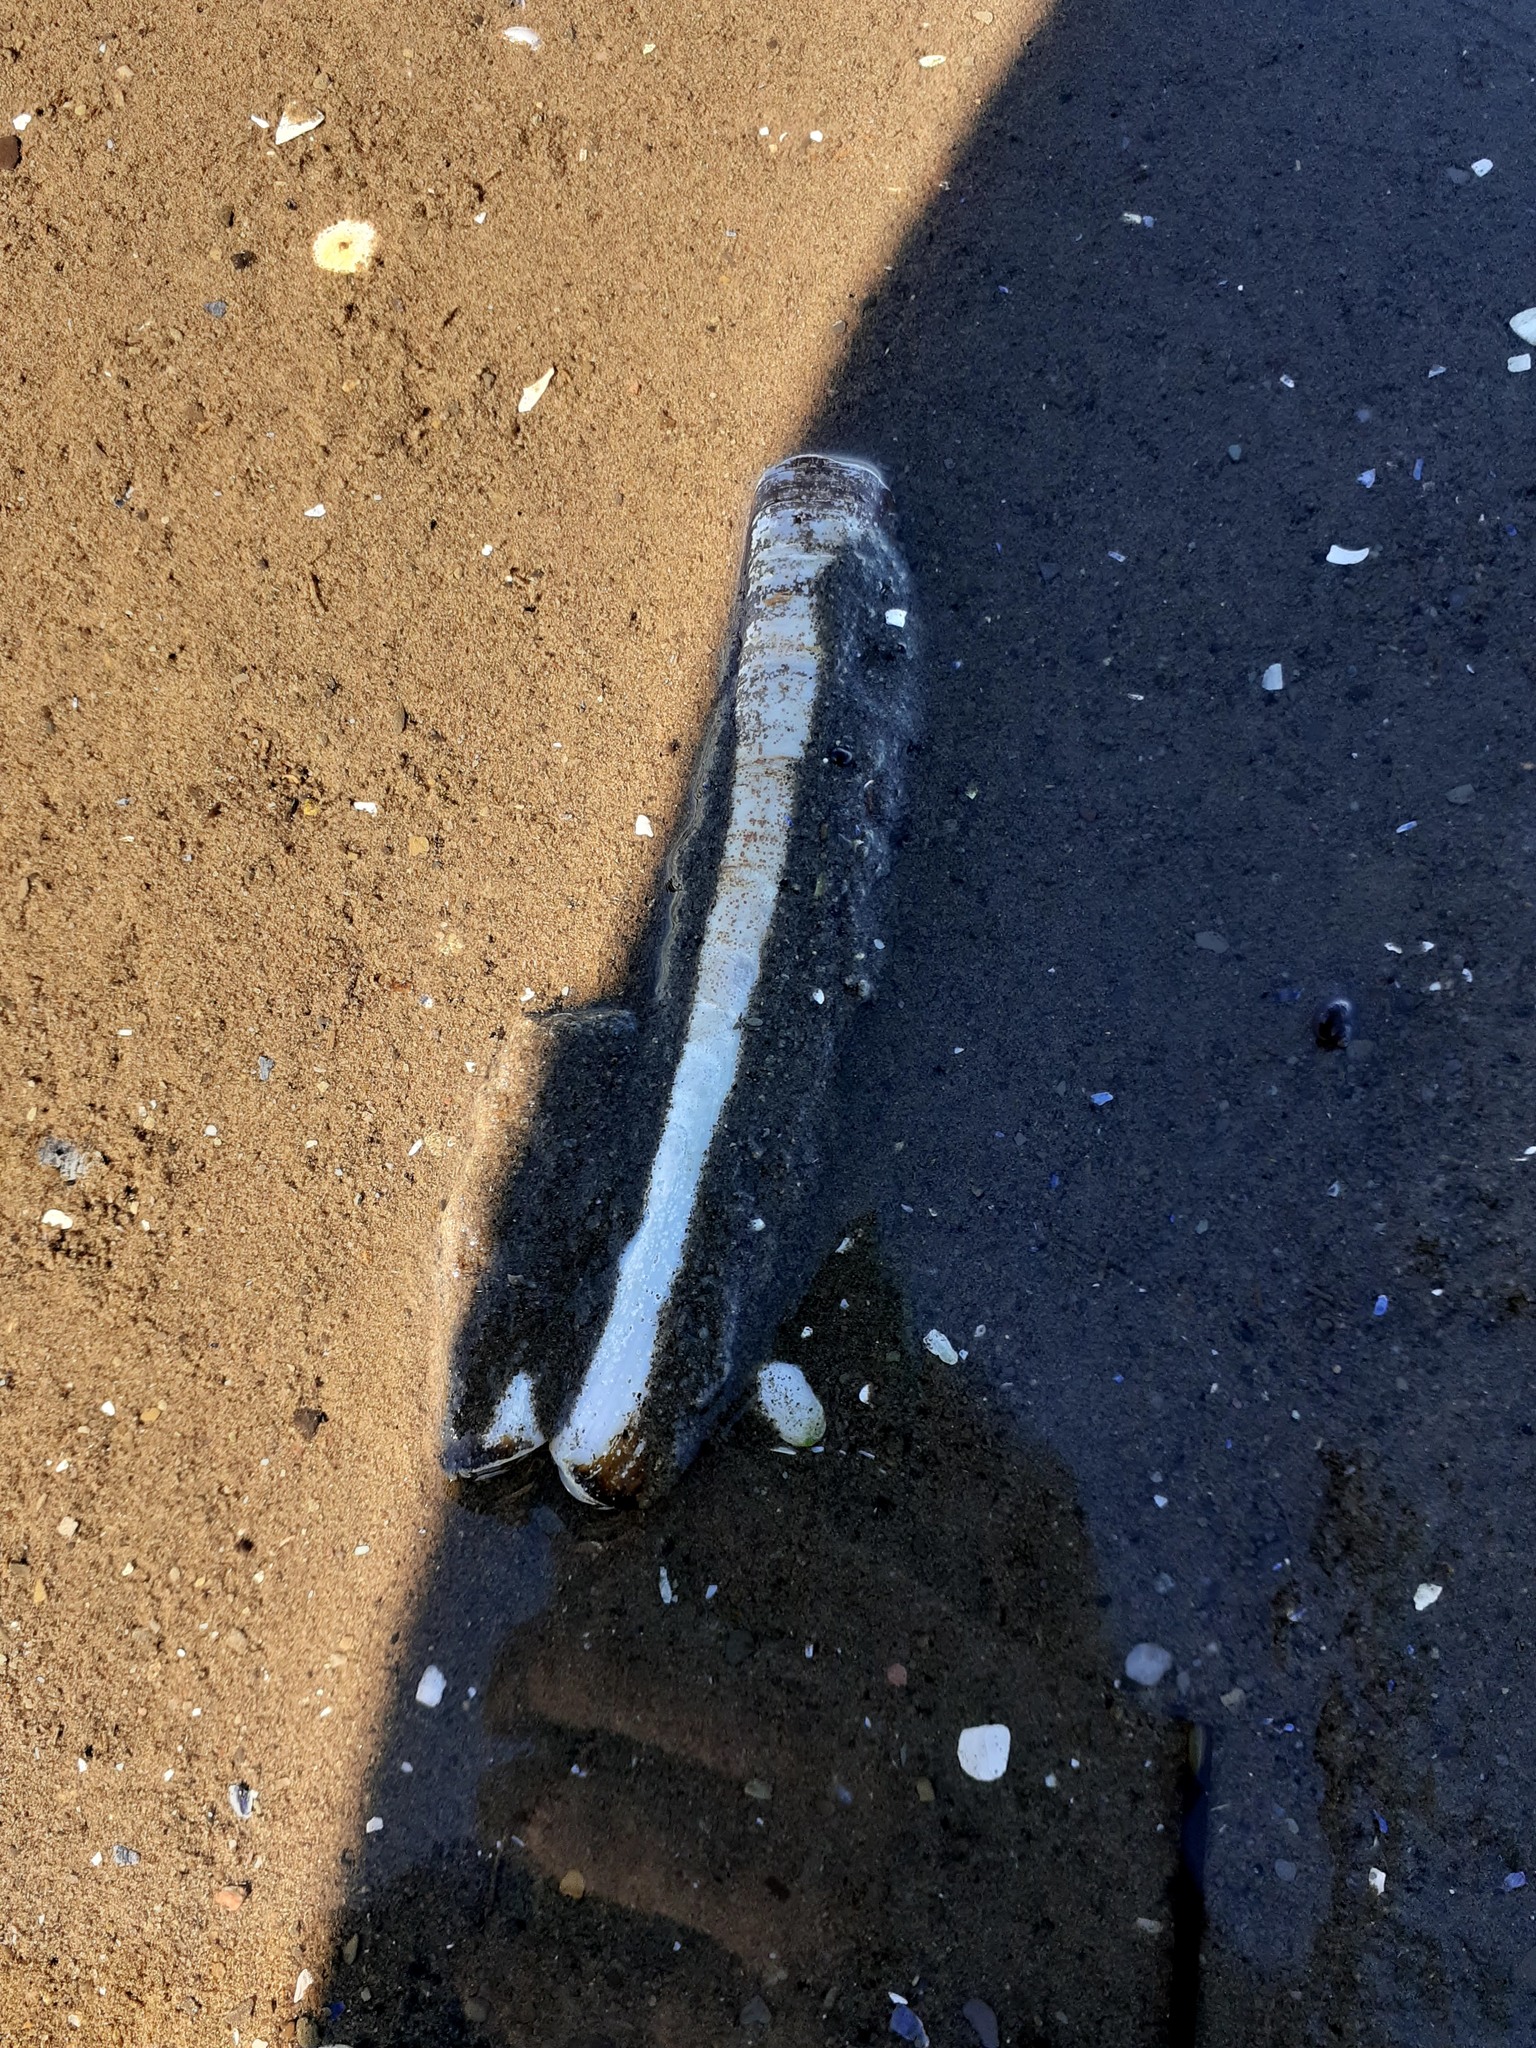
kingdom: Animalia
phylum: Mollusca
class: Bivalvia
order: Adapedonta
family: Pharidae
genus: Ensis
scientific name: Ensis leei
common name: American jack knife clam
